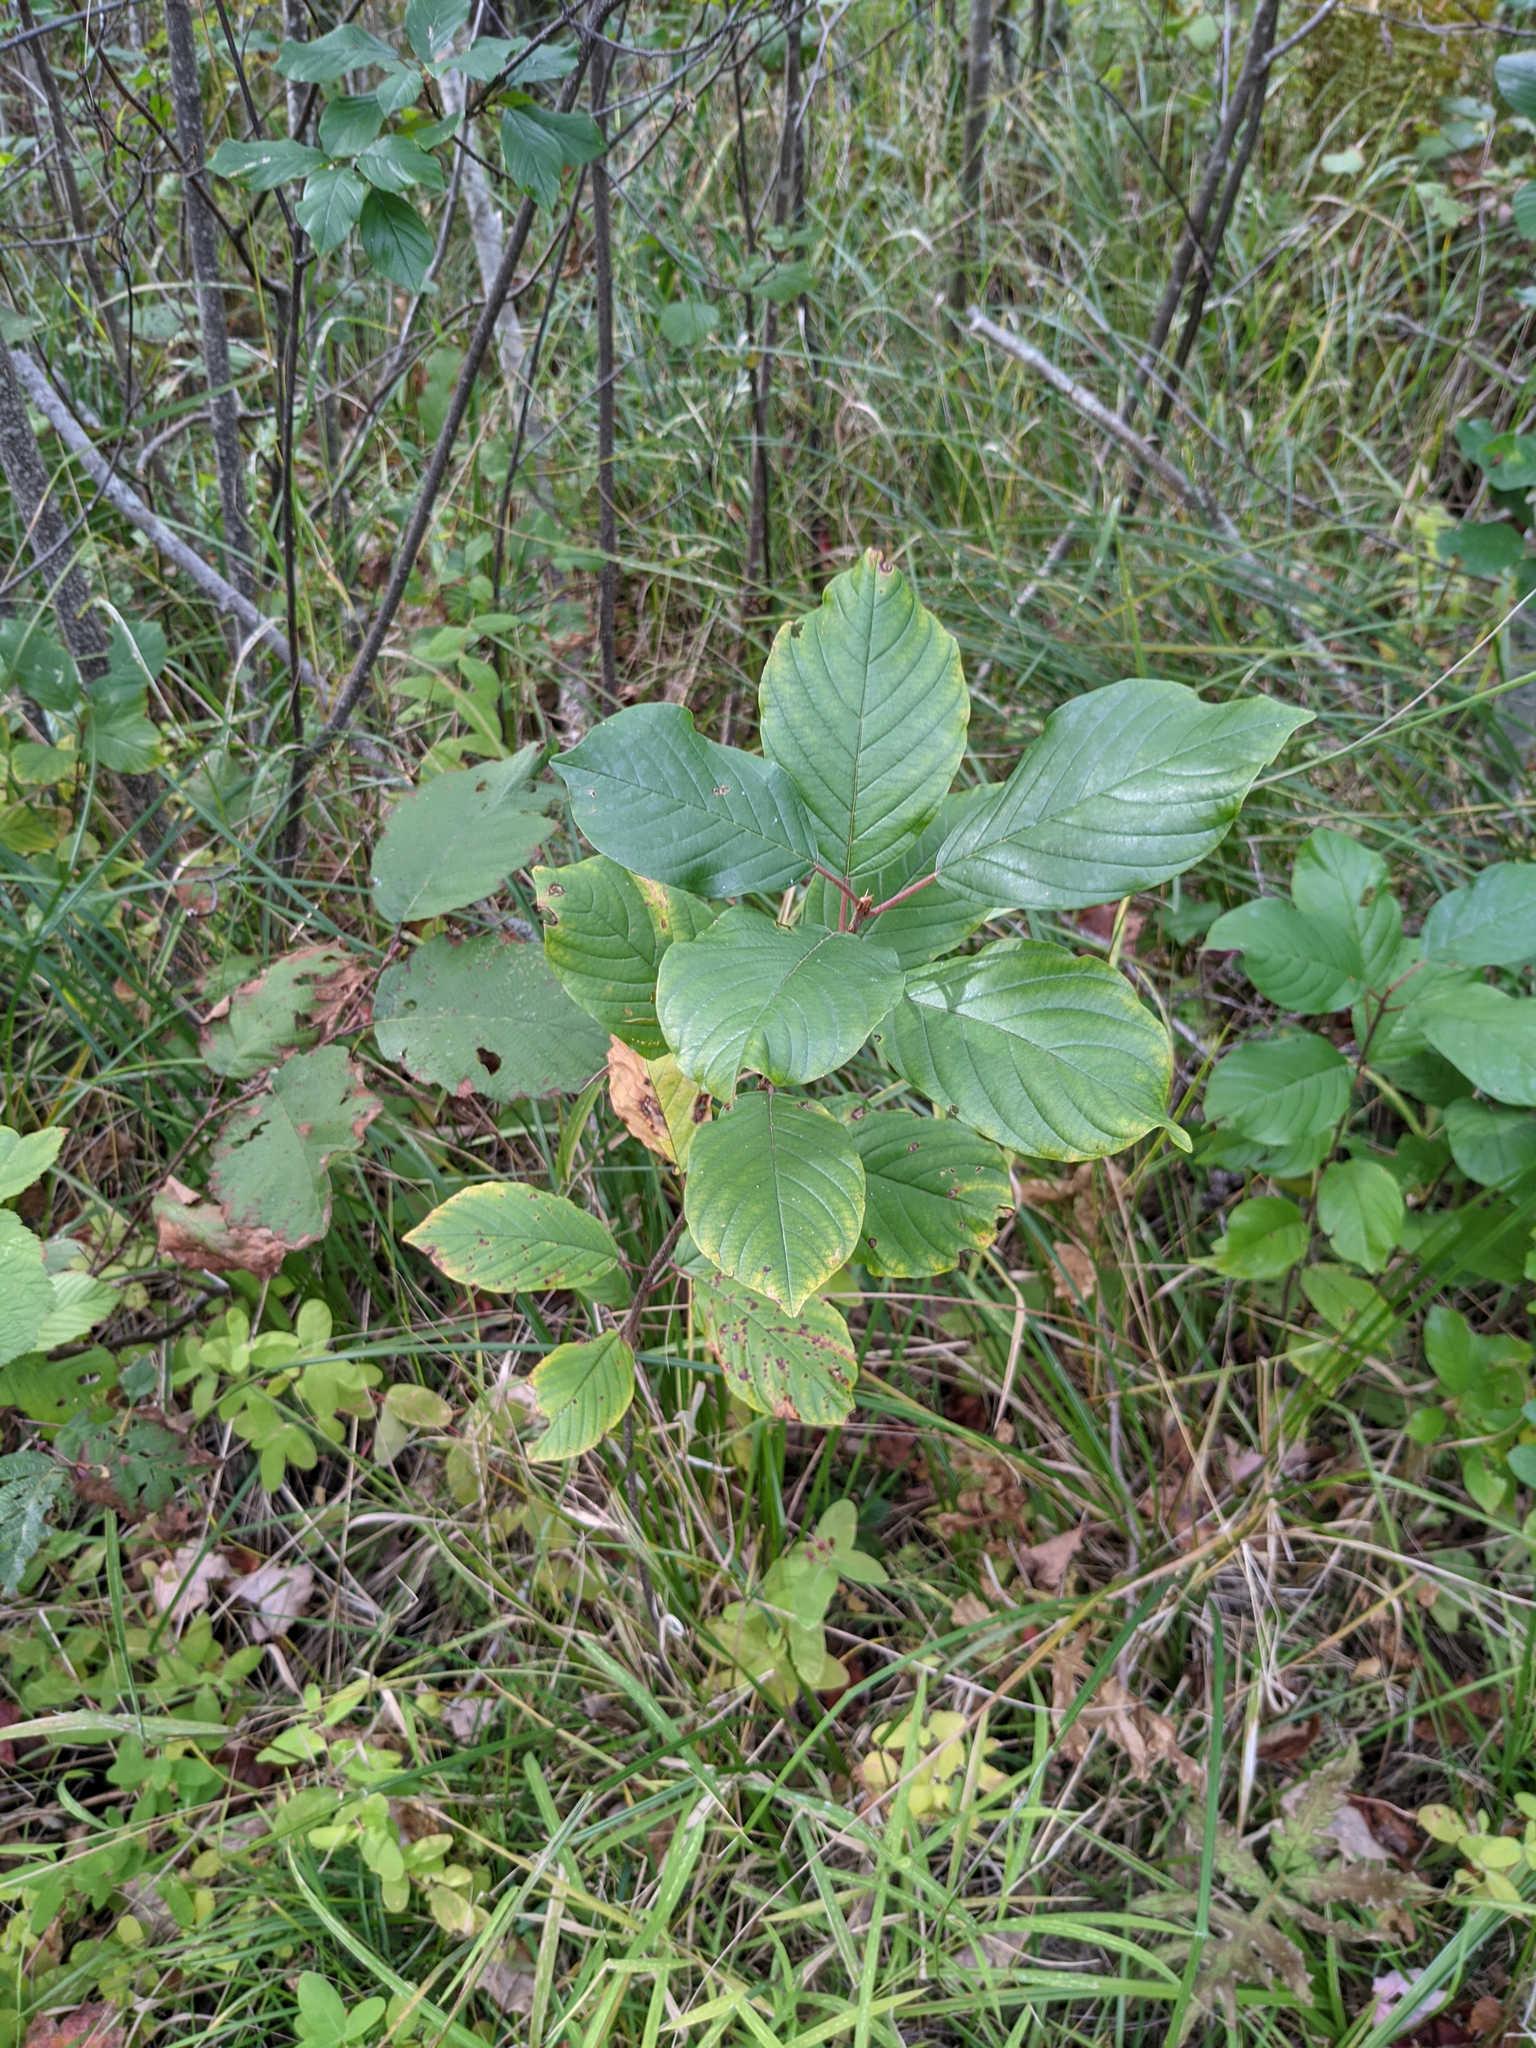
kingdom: Plantae
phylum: Tracheophyta
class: Magnoliopsida
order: Rosales
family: Rhamnaceae
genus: Frangula
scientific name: Frangula alnus
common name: Alder buckthorn
